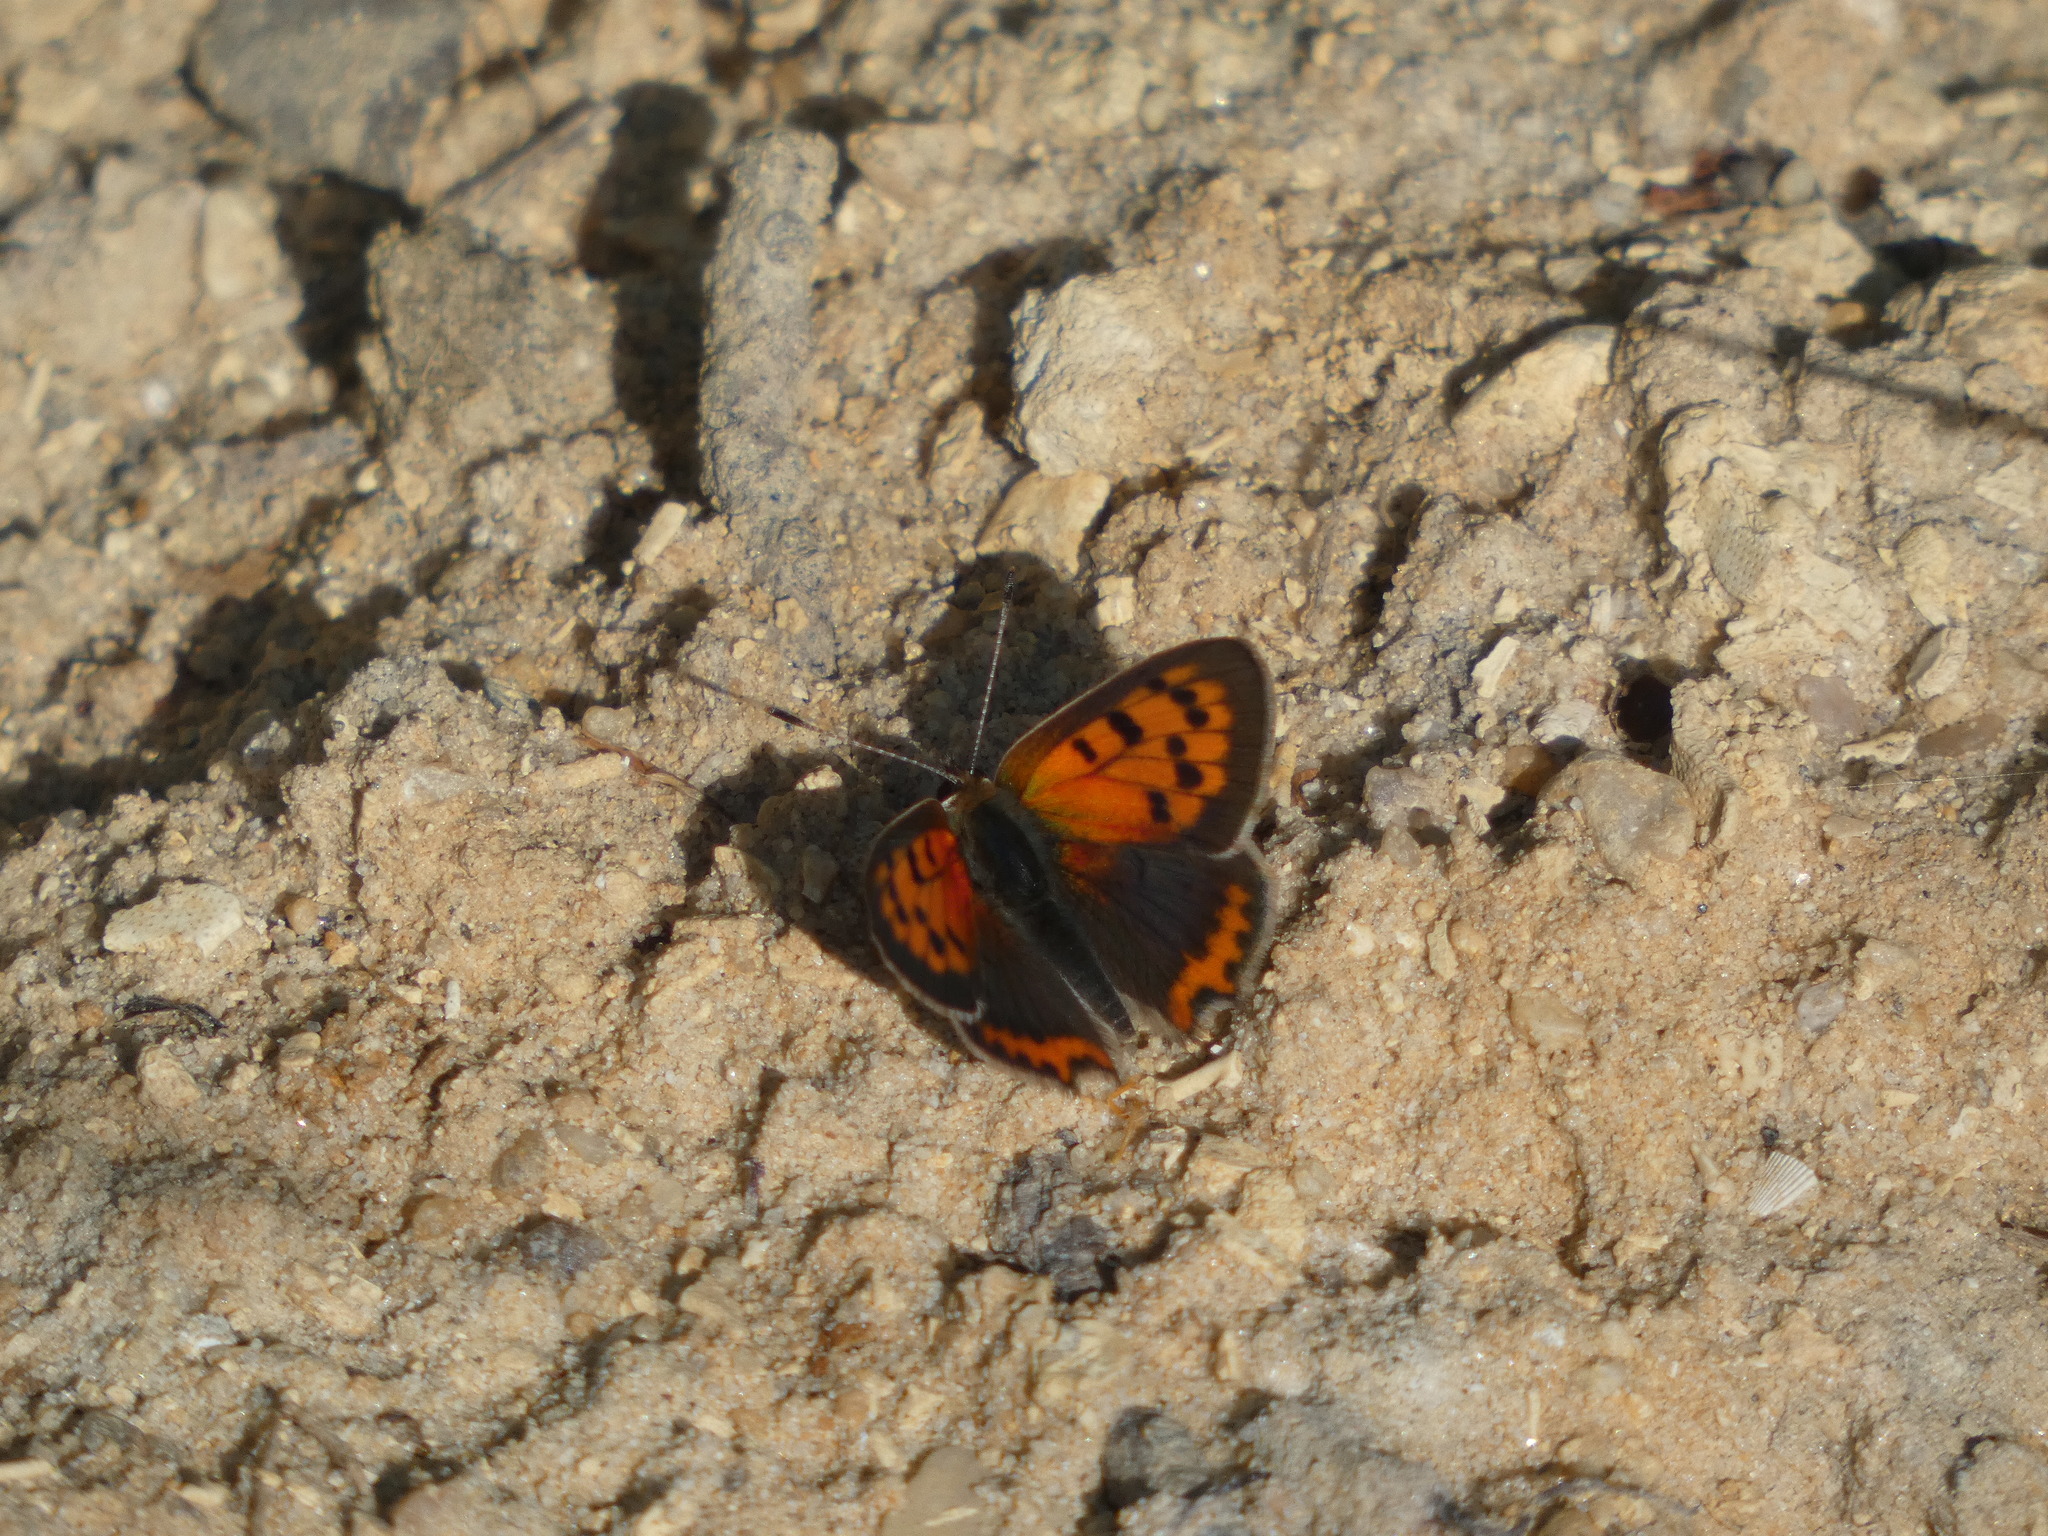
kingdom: Animalia
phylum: Arthropoda
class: Insecta
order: Lepidoptera
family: Lycaenidae
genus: Lycaena
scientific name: Lycaena phlaeas
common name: Small copper
